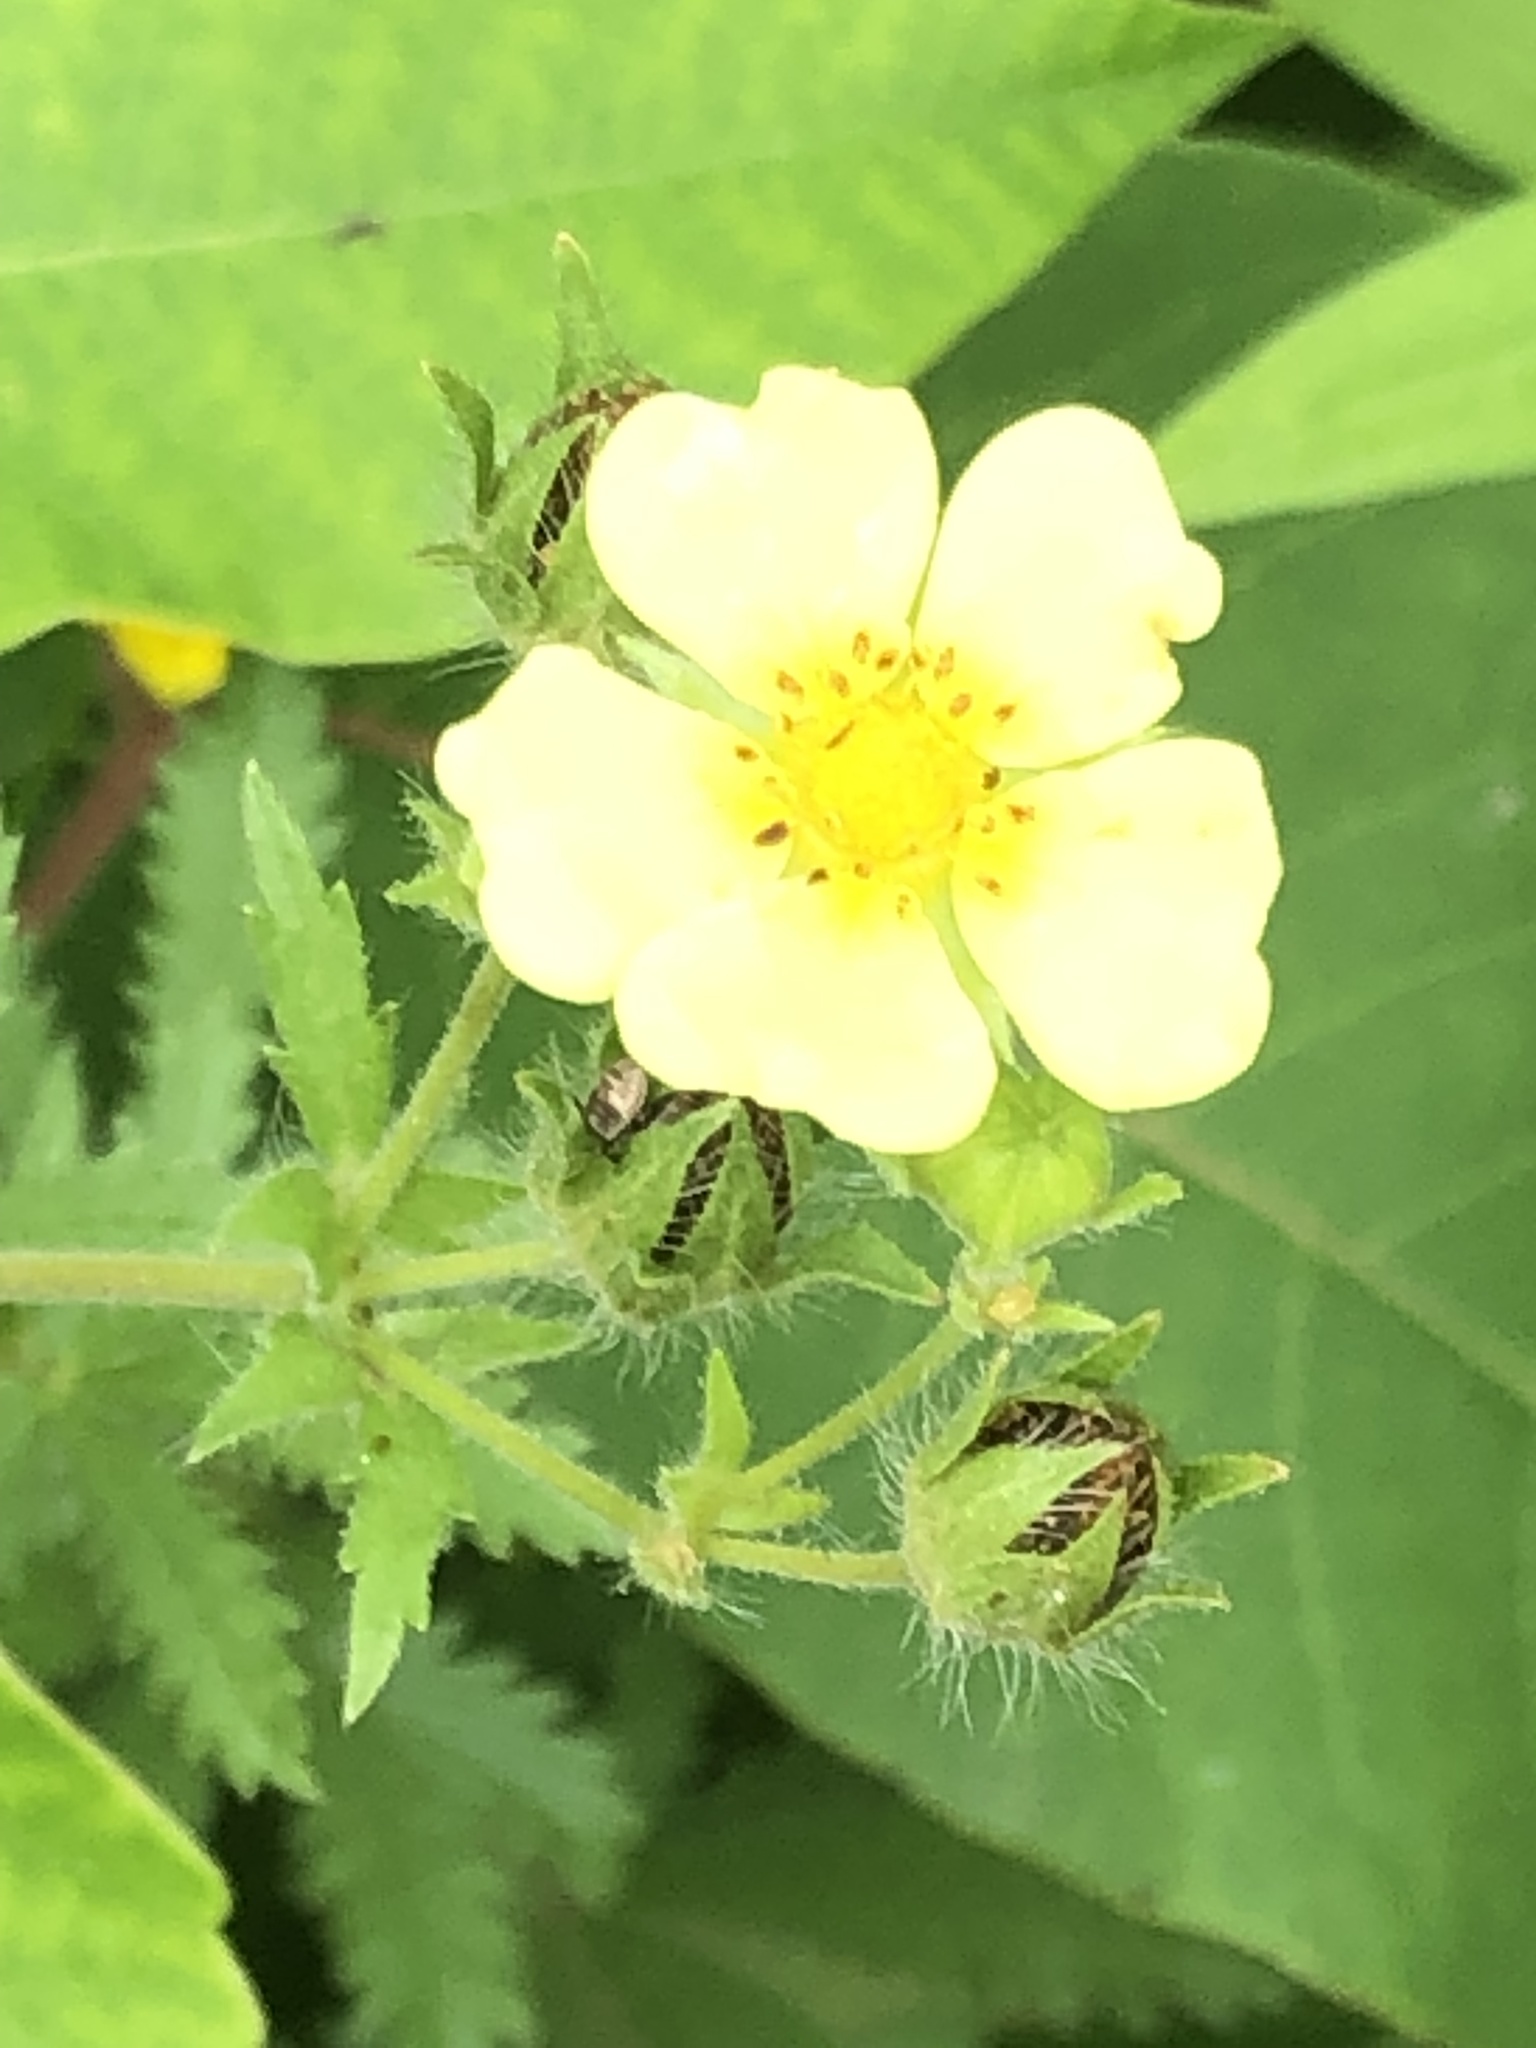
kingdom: Plantae
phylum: Tracheophyta
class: Magnoliopsida
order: Rosales
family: Rosaceae
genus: Potentilla
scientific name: Potentilla recta
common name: Sulphur cinquefoil
